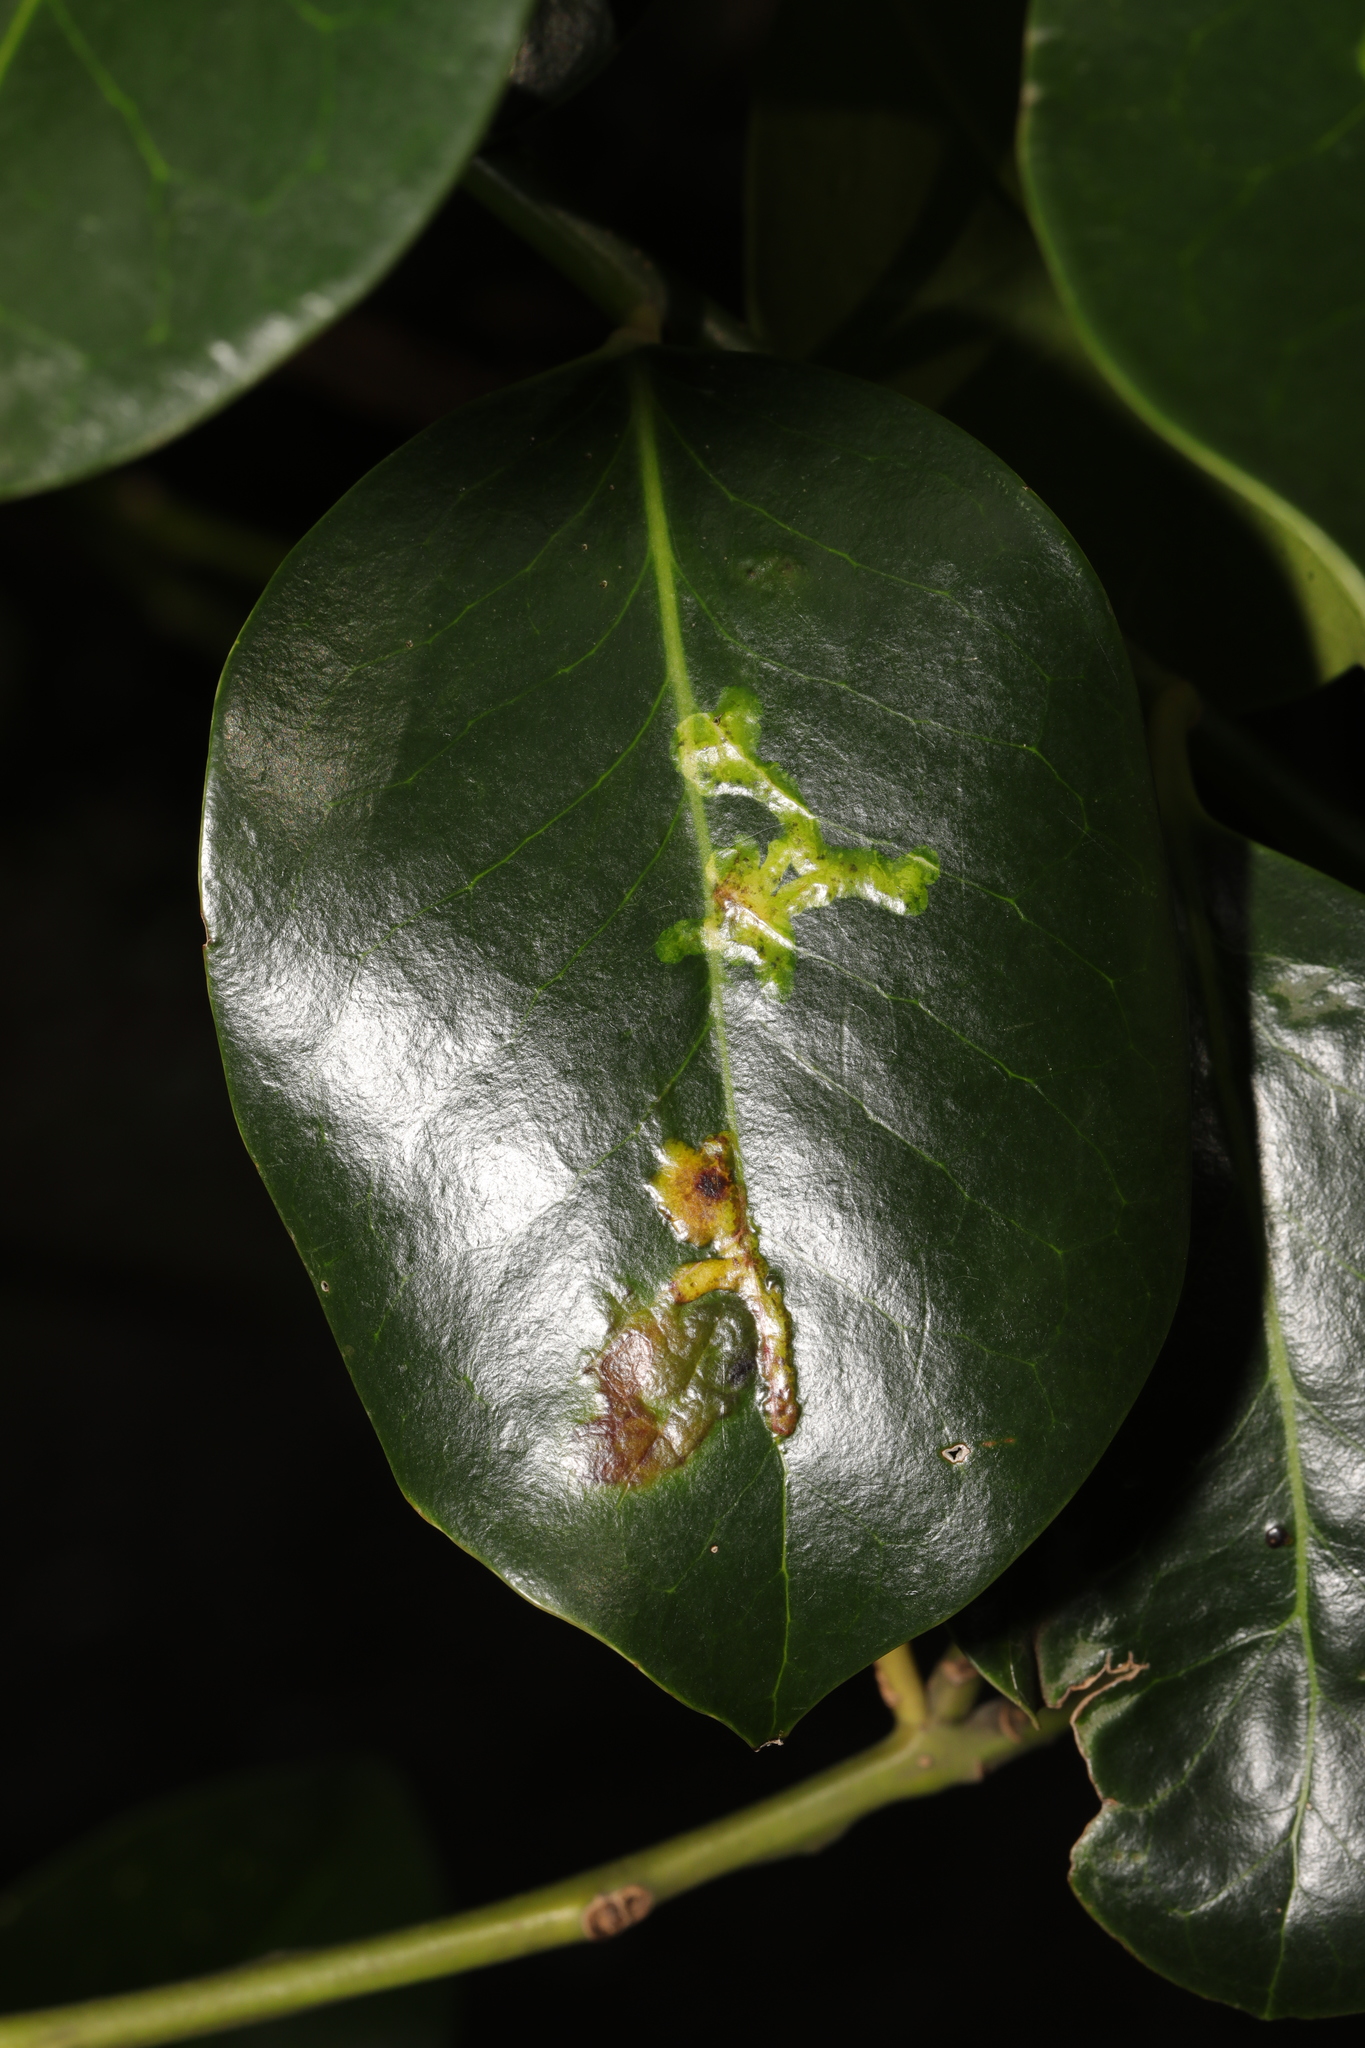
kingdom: Animalia
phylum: Arthropoda
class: Insecta
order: Diptera
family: Agromyzidae
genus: Phytomyza
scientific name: Phytomyza ilicis
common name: Holly leafminer
